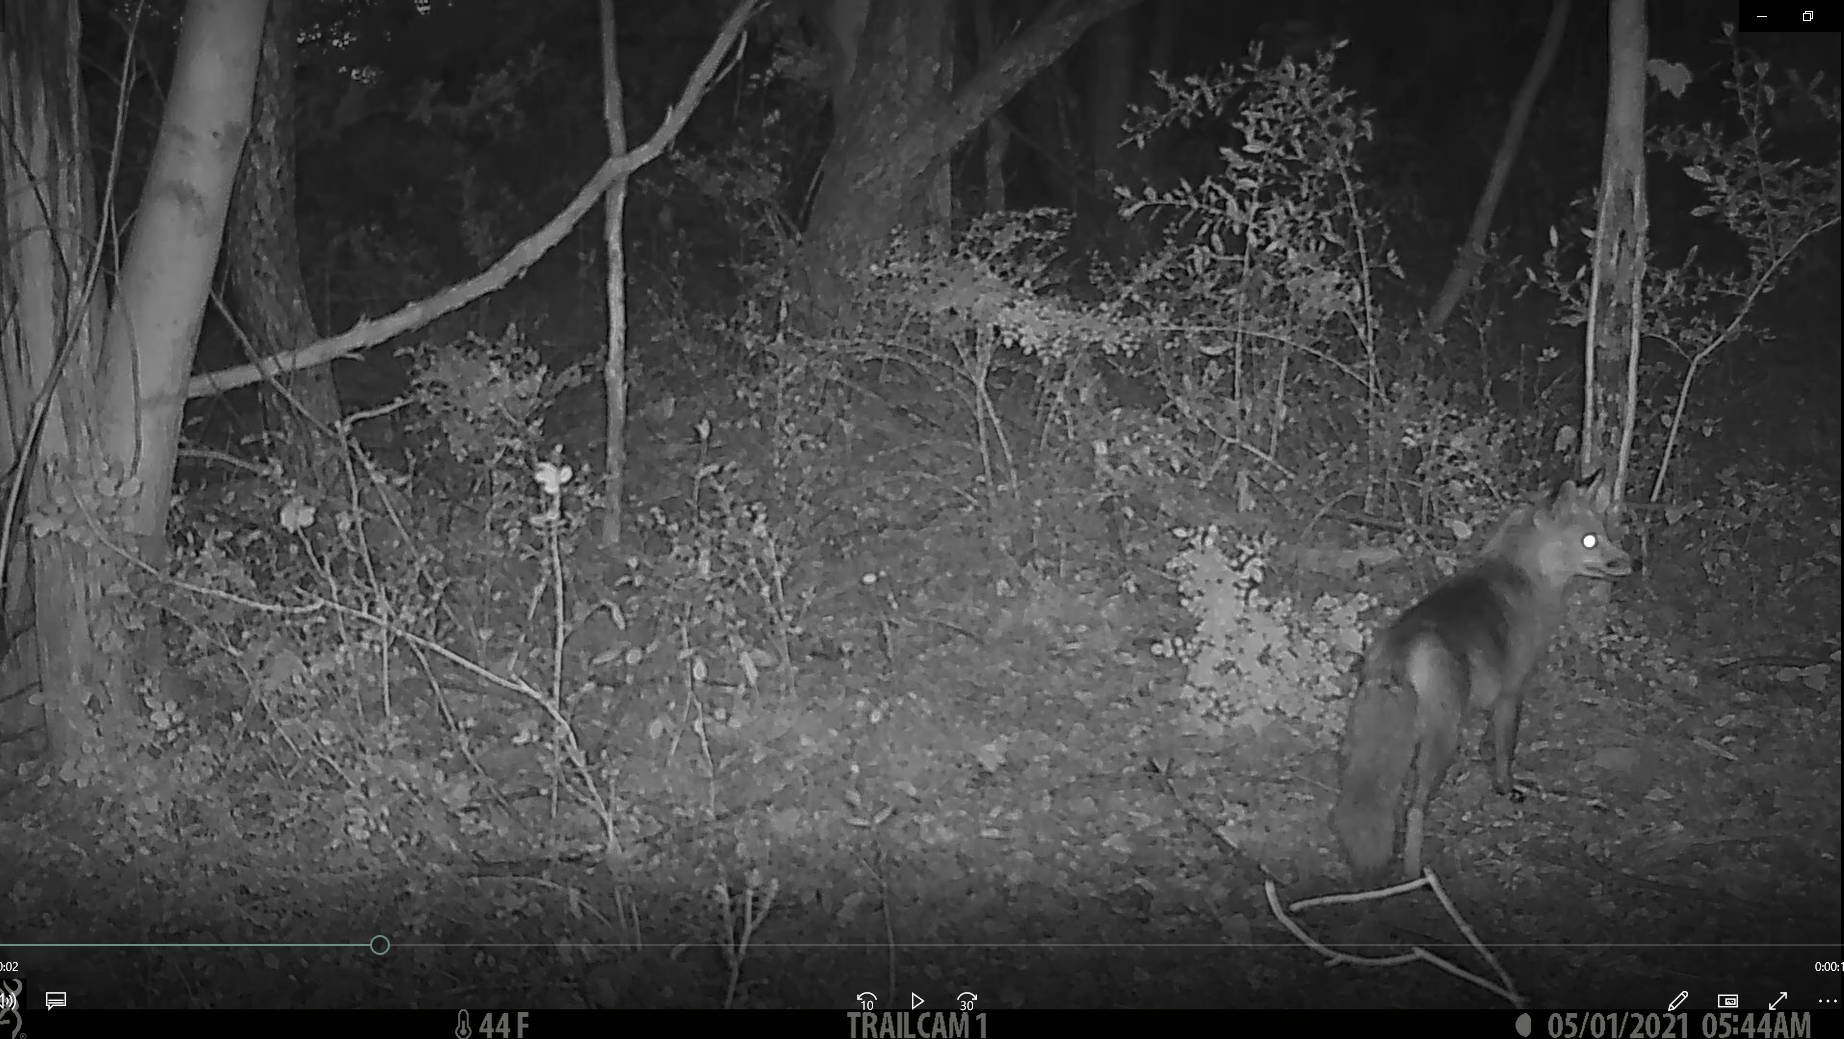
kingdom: Animalia
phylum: Chordata
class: Mammalia
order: Carnivora
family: Canidae
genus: Vulpes
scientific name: Vulpes vulpes
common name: Red fox
